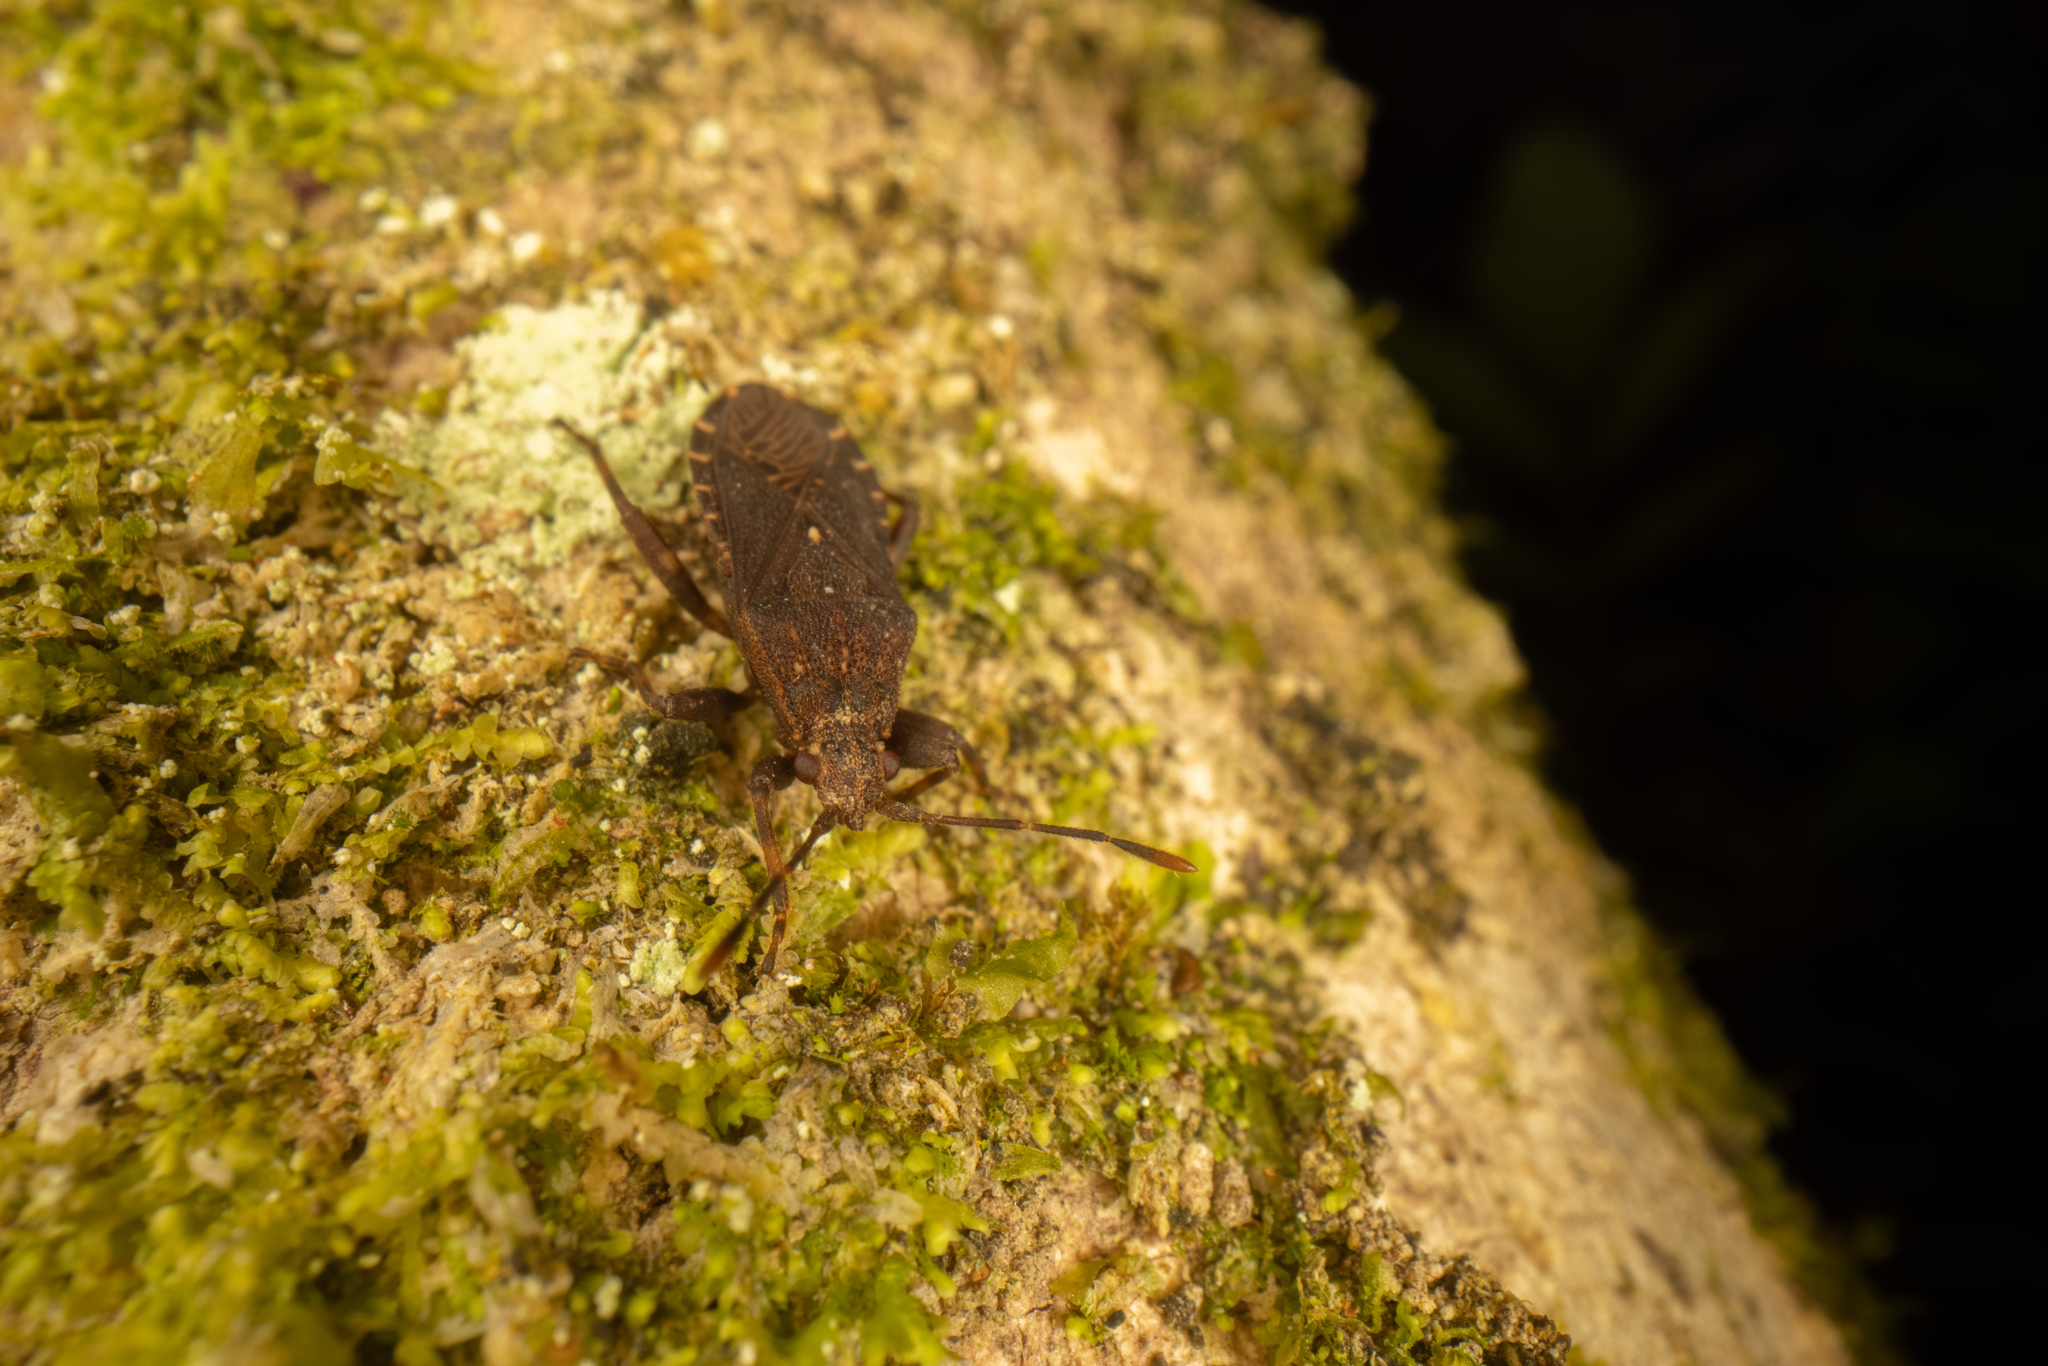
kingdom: Animalia
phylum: Arthropoda
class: Insecta
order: Hemiptera
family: Coreidae
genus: Acantholybas
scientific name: Acantholybas brunneus
